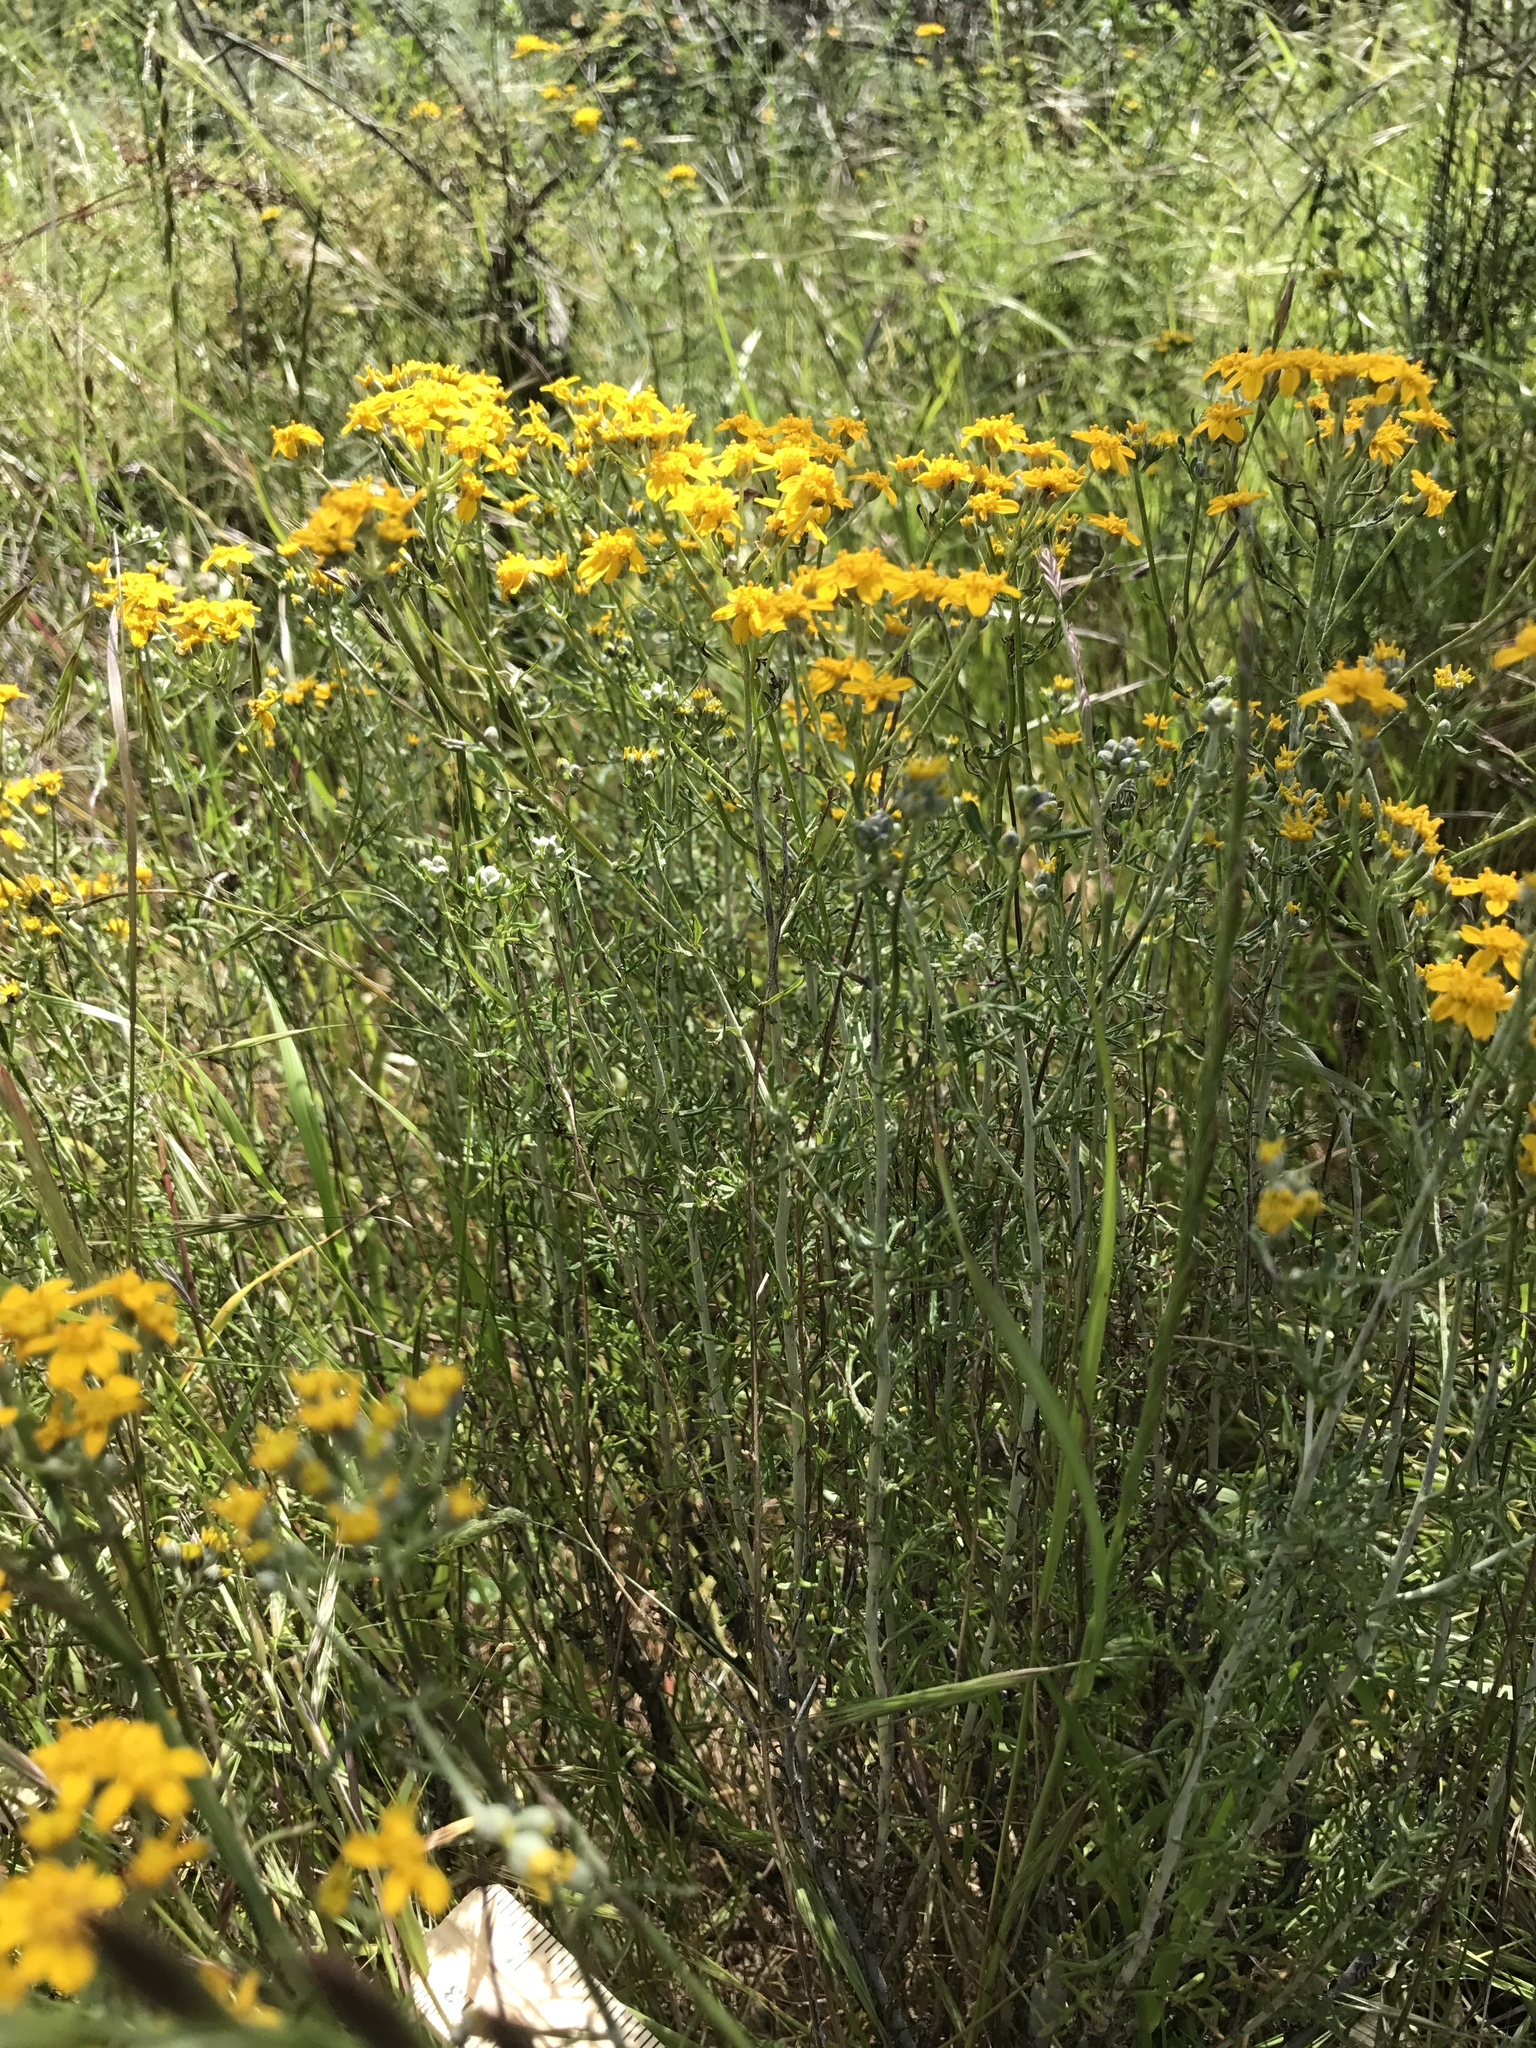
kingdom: Plantae
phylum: Tracheophyta
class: Magnoliopsida
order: Asterales
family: Asteraceae
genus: Eriophyllum
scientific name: Eriophyllum confertiflorum
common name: Golden-yarrow
